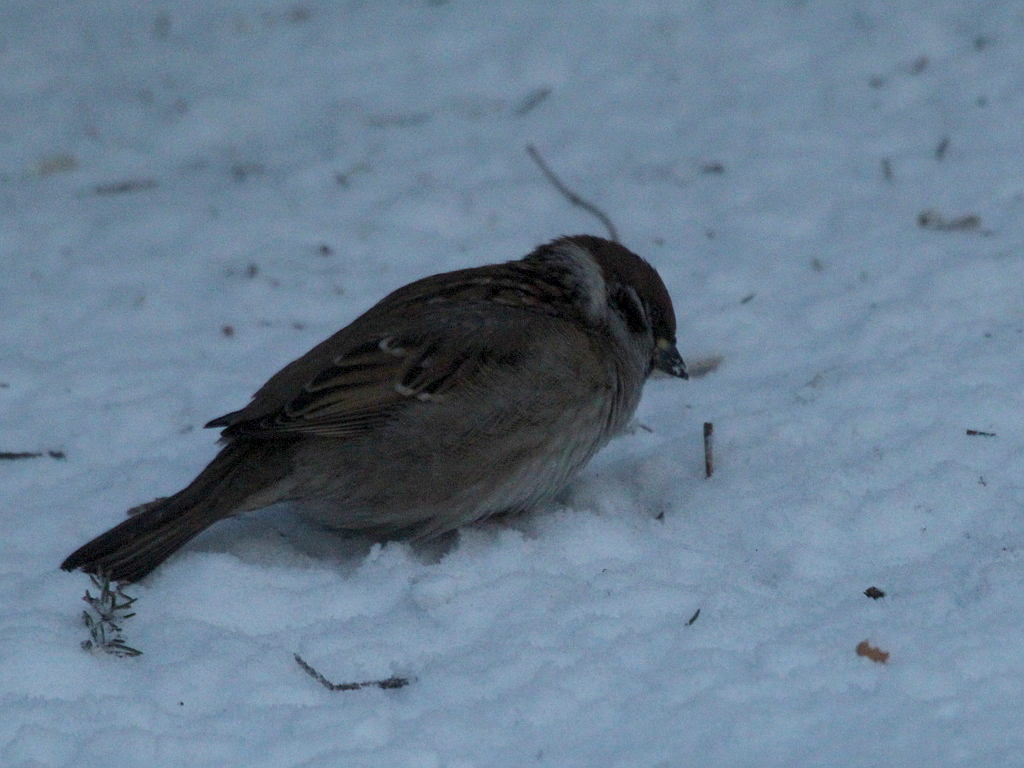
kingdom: Animalia
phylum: Chordata
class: Aves
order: Passeriformes
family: Passeridae
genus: Passer
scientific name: Passer montanus
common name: Eurasian tree sparrow
